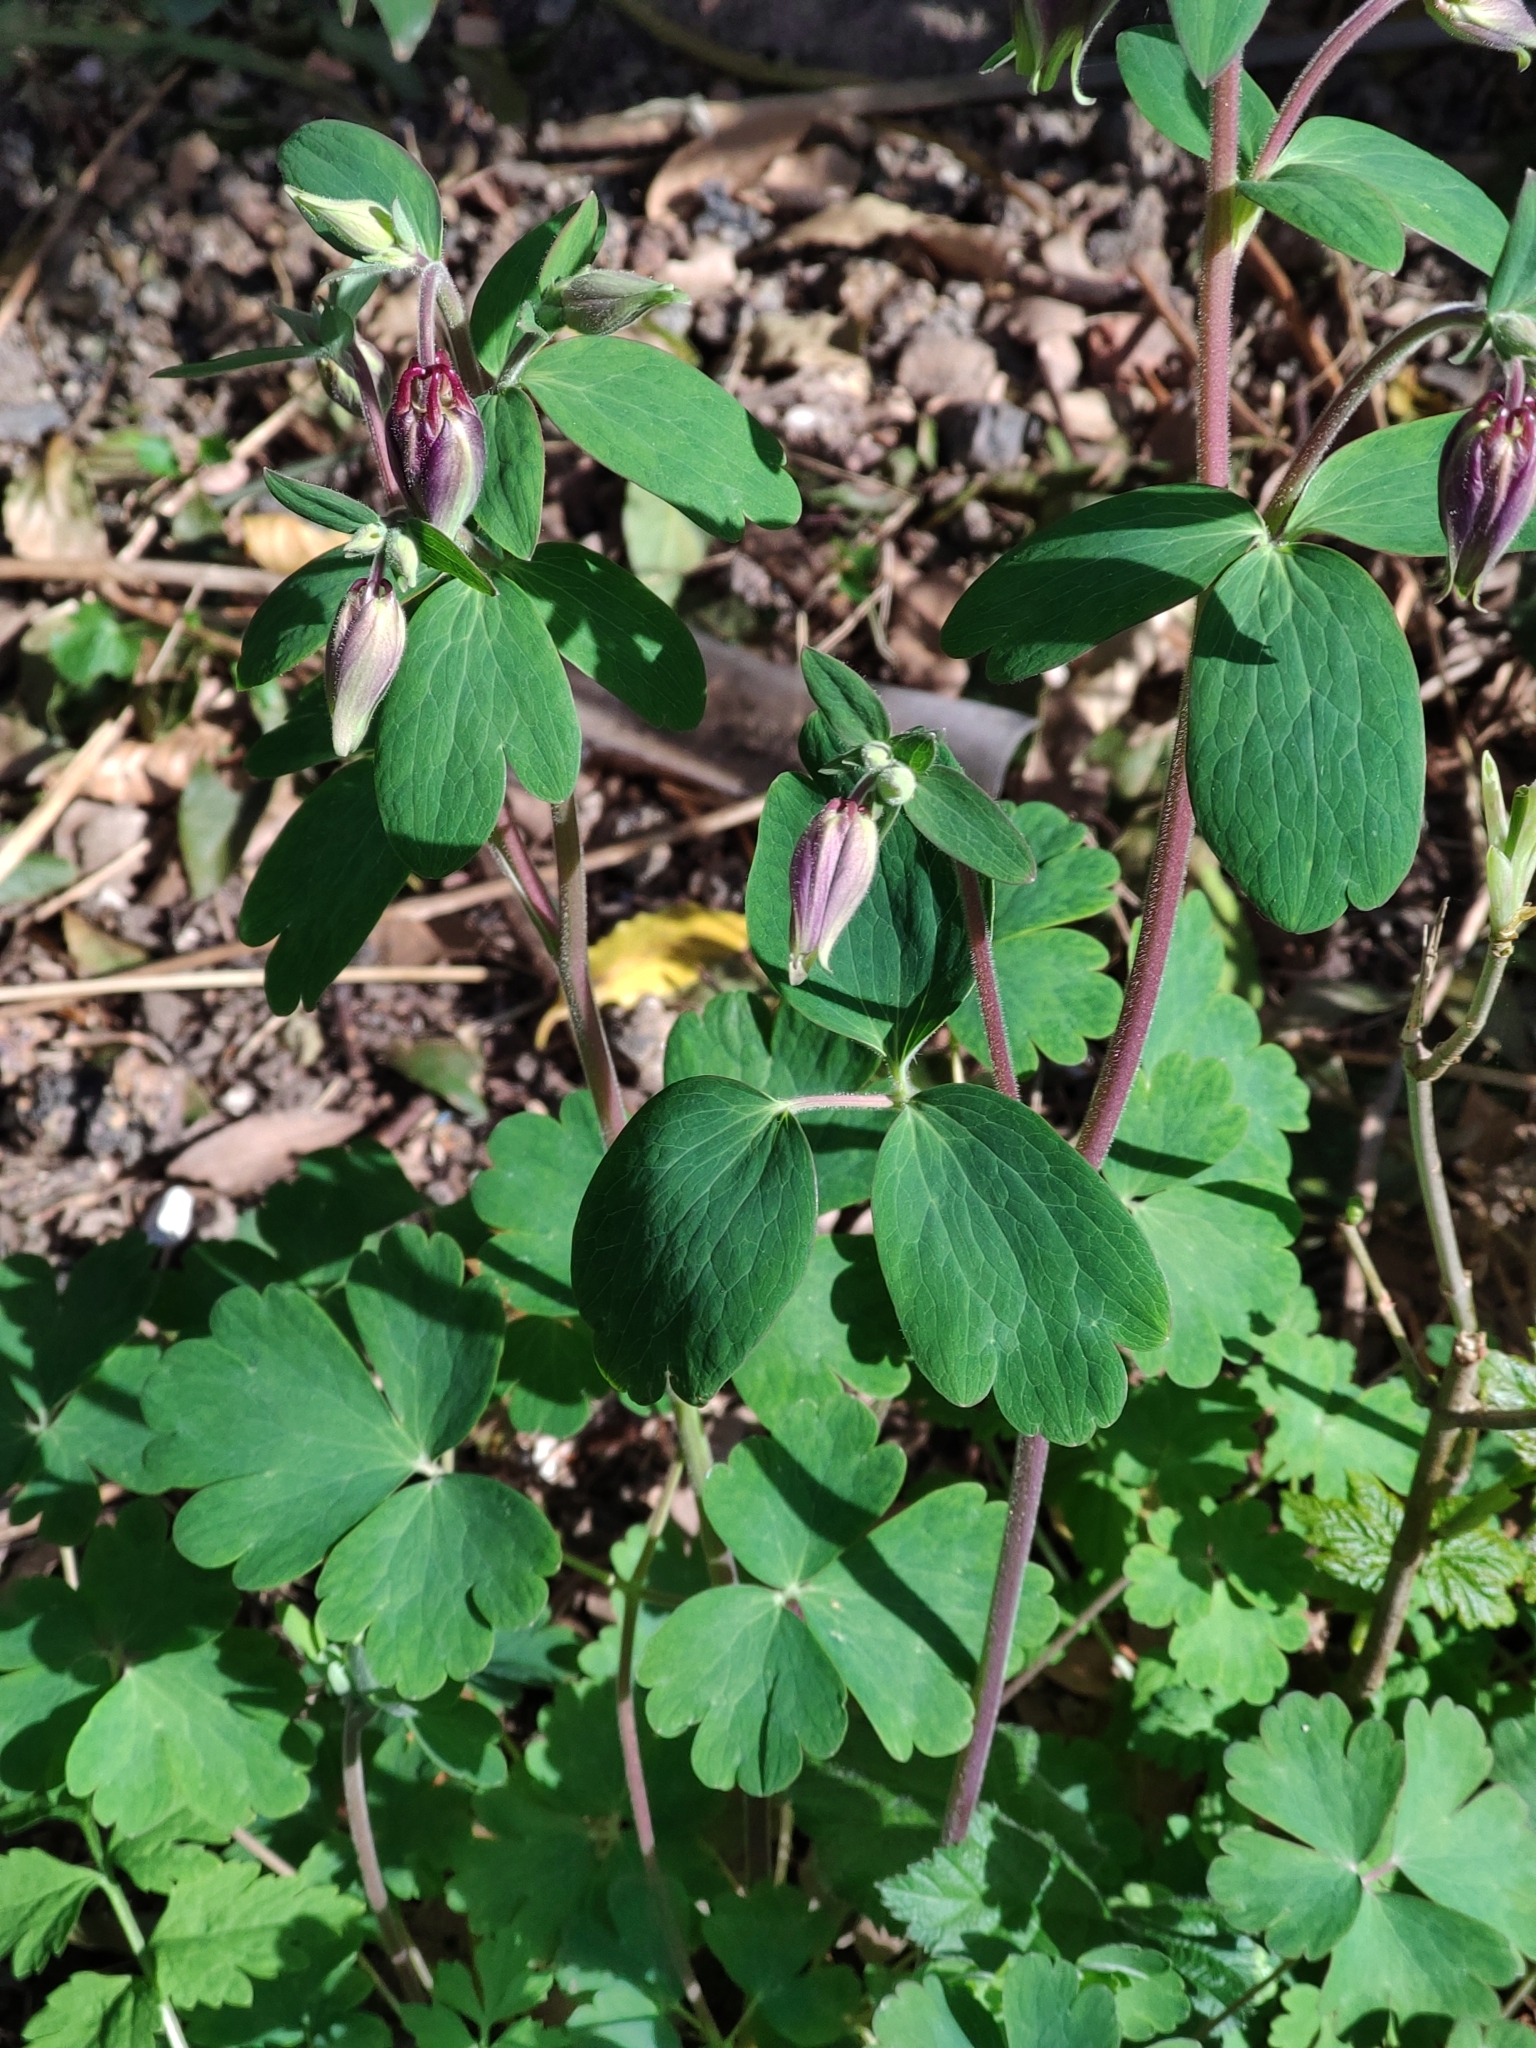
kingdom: Plantae
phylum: Tracheophyta
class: Magnoliopsida
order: Ranunculales
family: Ranunculaceae
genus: Aquilegia
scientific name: Aquilegia vulgaris
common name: Columbine
